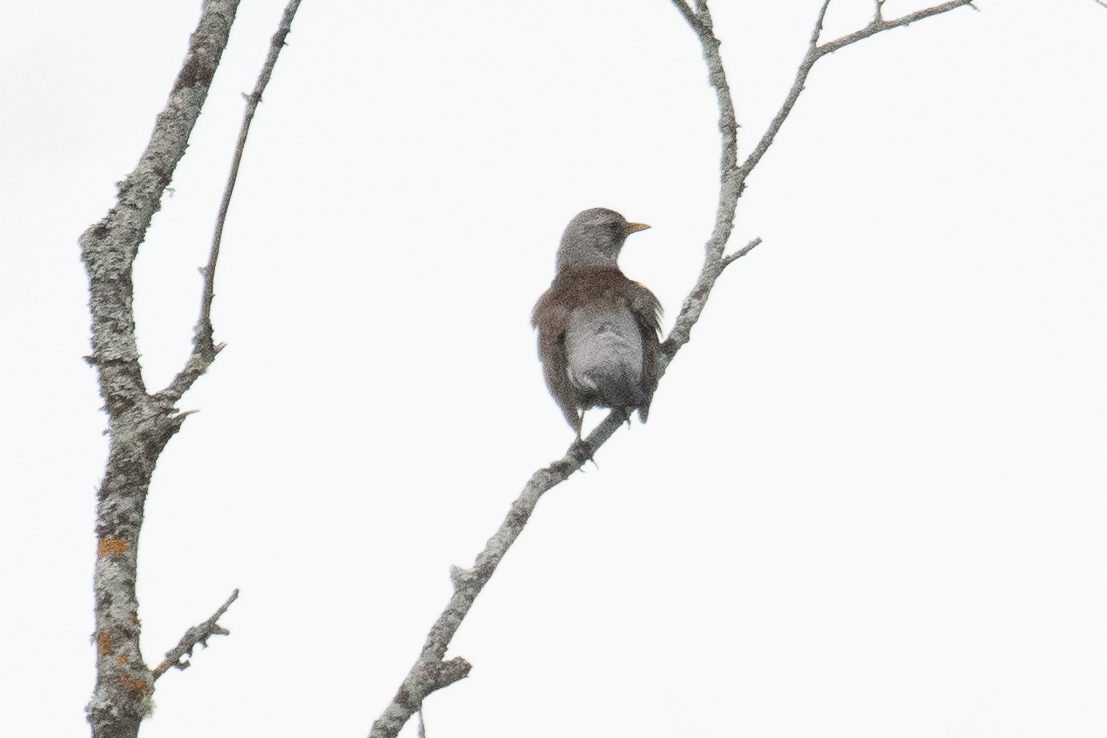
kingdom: Animalia
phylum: Chordata
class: Aves
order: Passeriformes
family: Turdidae
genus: Turdus
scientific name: Turdus pilaris
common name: Fieldfare
